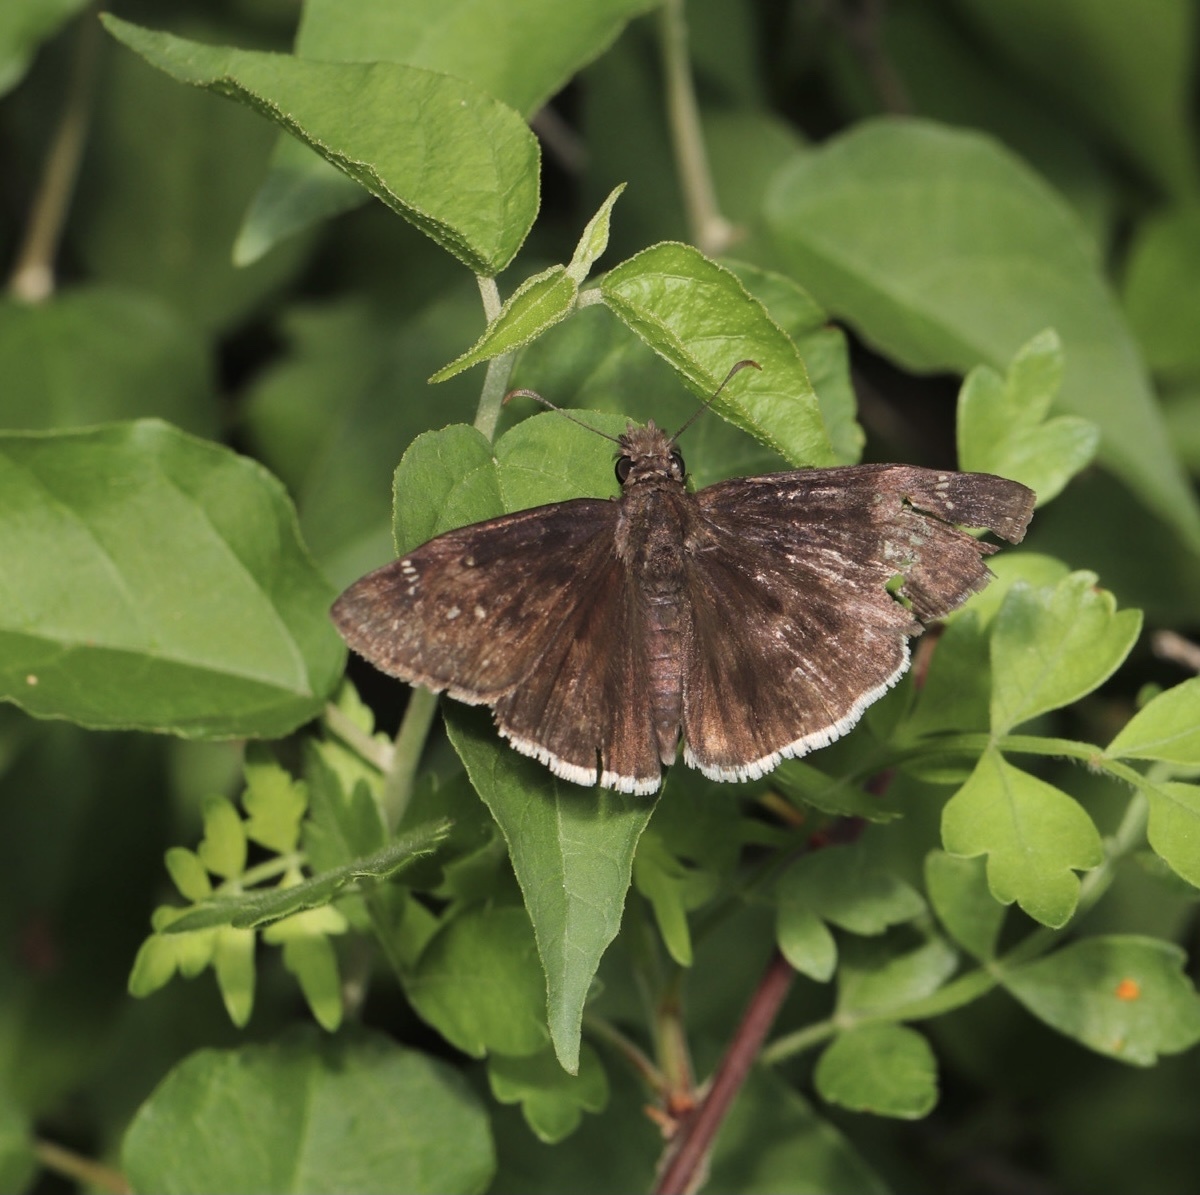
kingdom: Animalia
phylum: Arthropoda
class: Insecta
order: Lepidoptera
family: Hesperiidae
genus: Erynnis
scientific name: Erynnis funeralis
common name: Funereal duskywing
